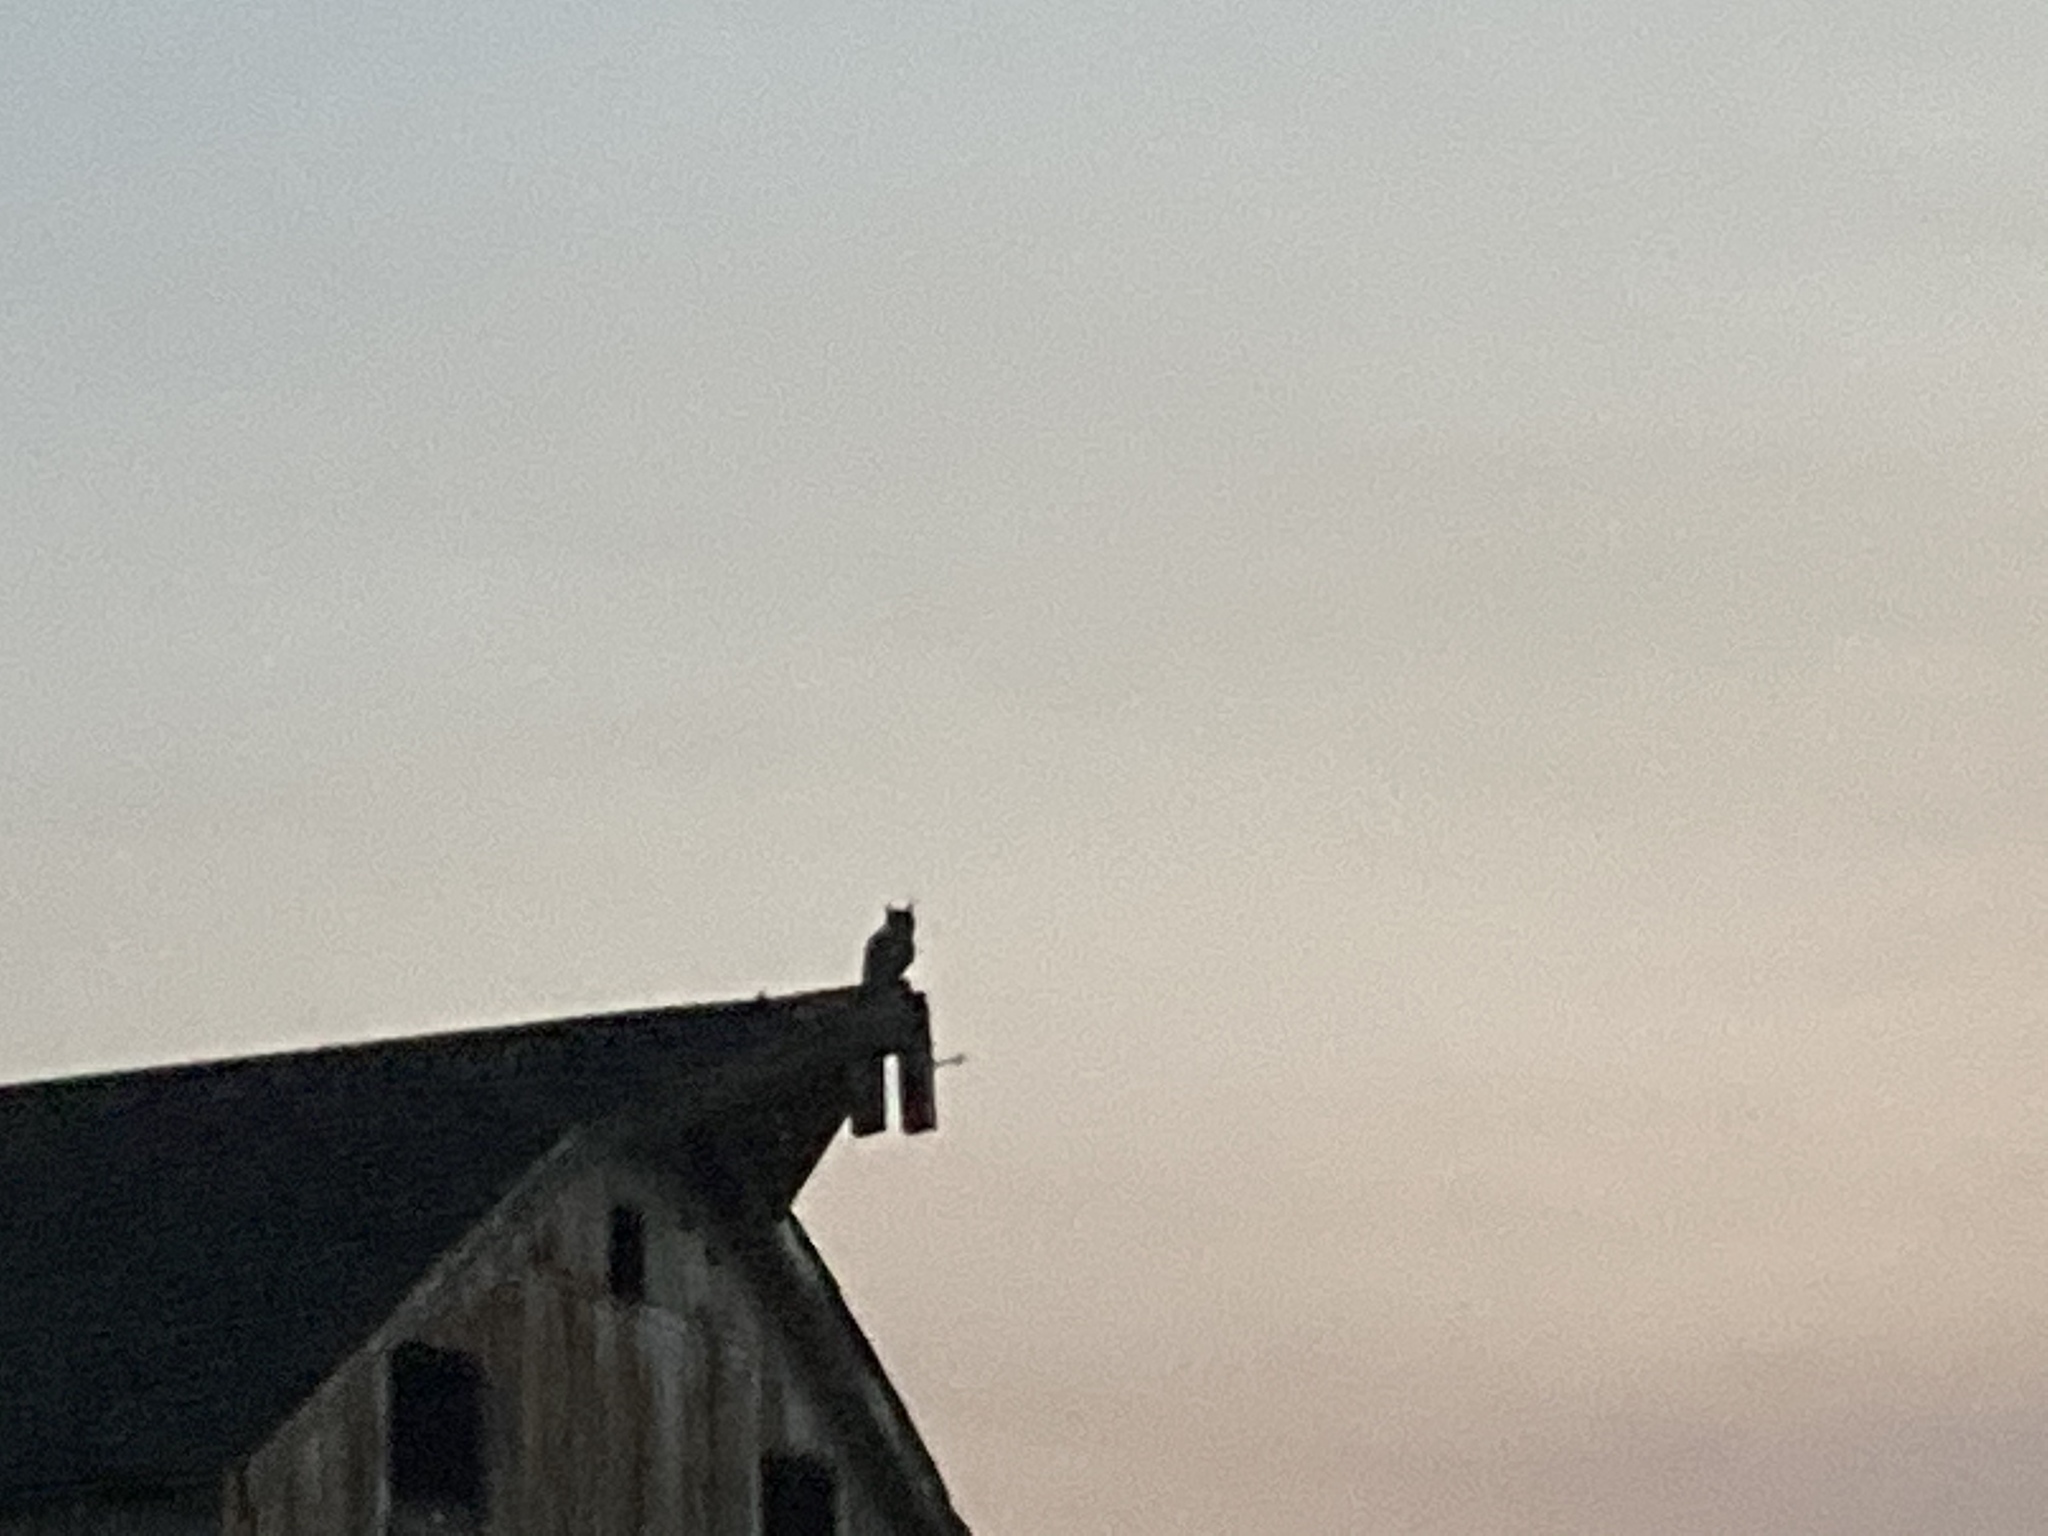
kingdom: Animalia
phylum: Chordata
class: Aves
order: Strigiformes
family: Strigidae
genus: Bubo
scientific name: Bubo virginianus
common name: Great horned owl
